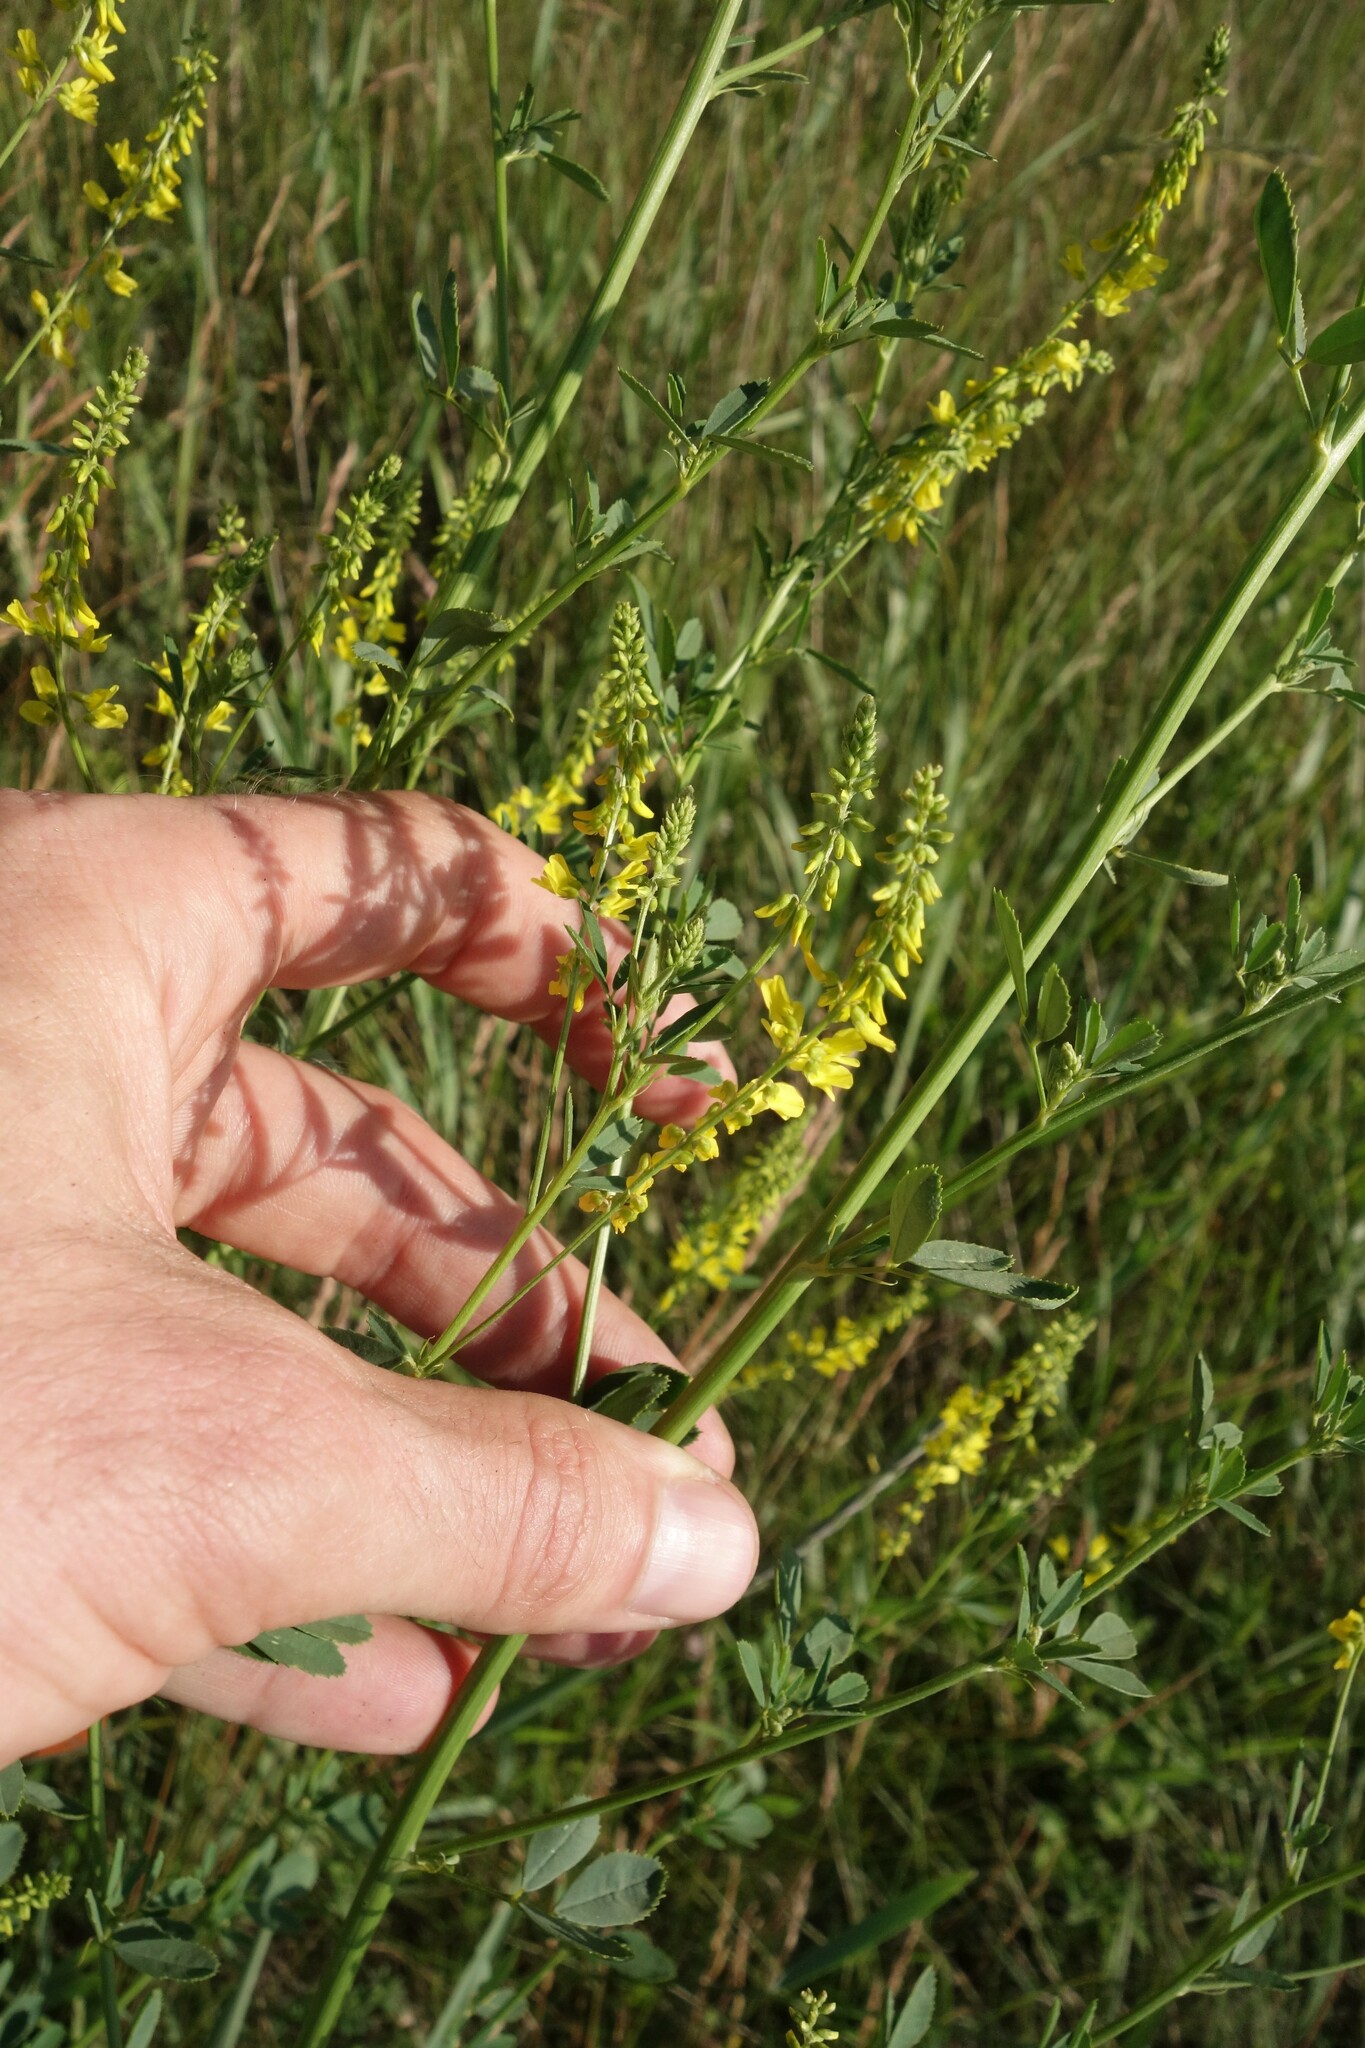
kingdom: Plantae
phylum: Tracheophyta
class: Magnoliopsida
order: Fabales
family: Fabaceae
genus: Melilotus
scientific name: Melilotus officinalis
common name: Sweetclover
